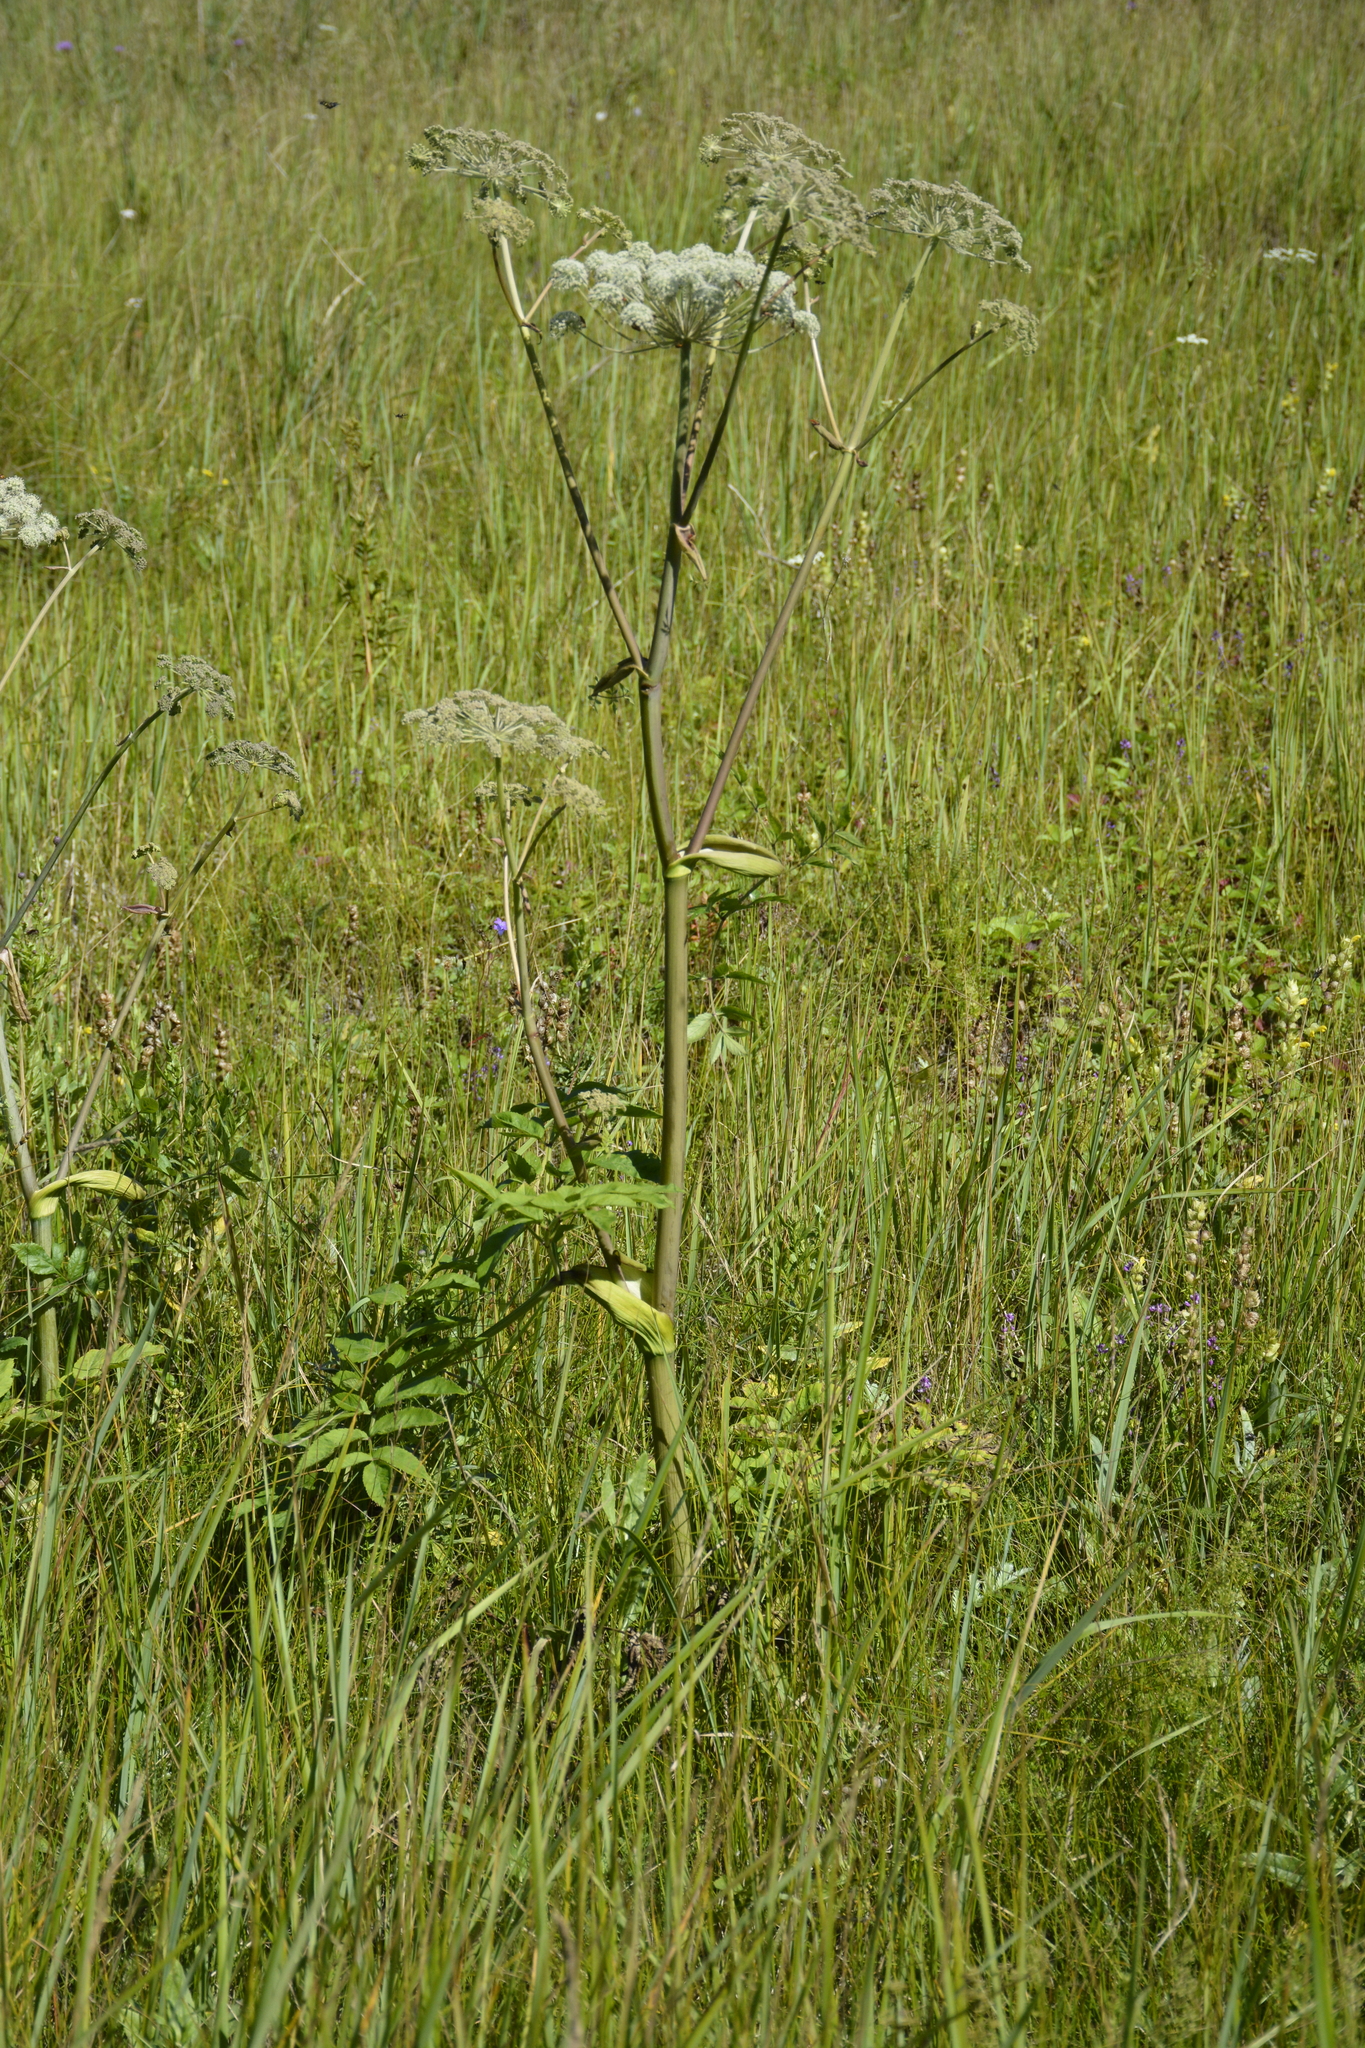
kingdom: Plantae
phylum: Tracheophyta
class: Magnoliopsida
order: Apiales
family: Apiaceae
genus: Angelica
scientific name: Angelica sylvestris
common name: Wild angelica
